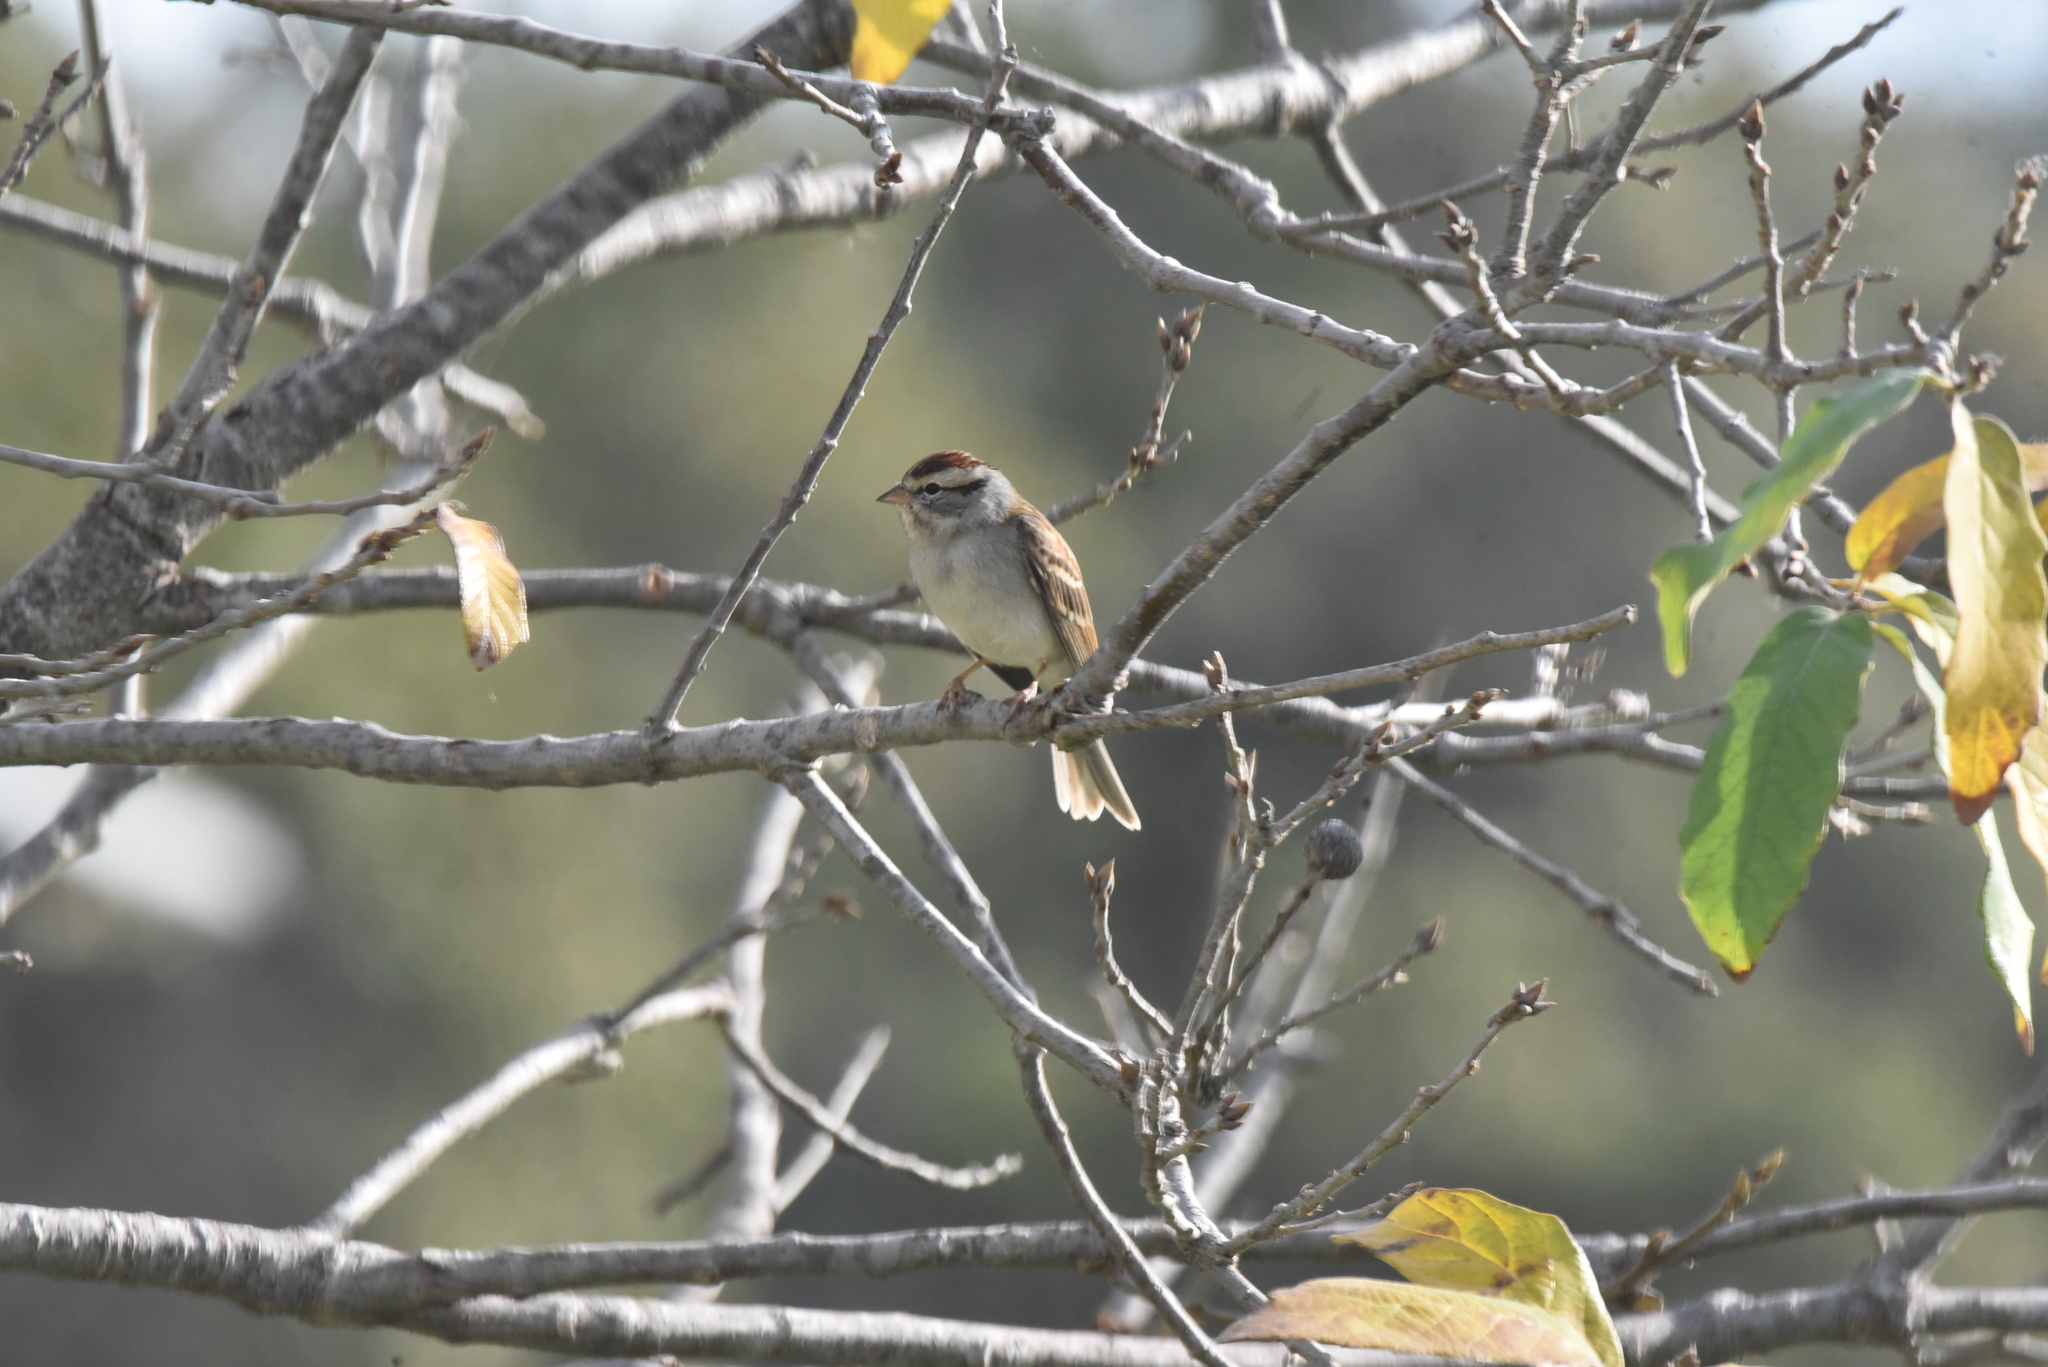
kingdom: Animalia
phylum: Chordata
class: Aves
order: Passeriformes
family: Passerellidae
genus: Spizella
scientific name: Spizella passerina
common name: Chipping sparrow
